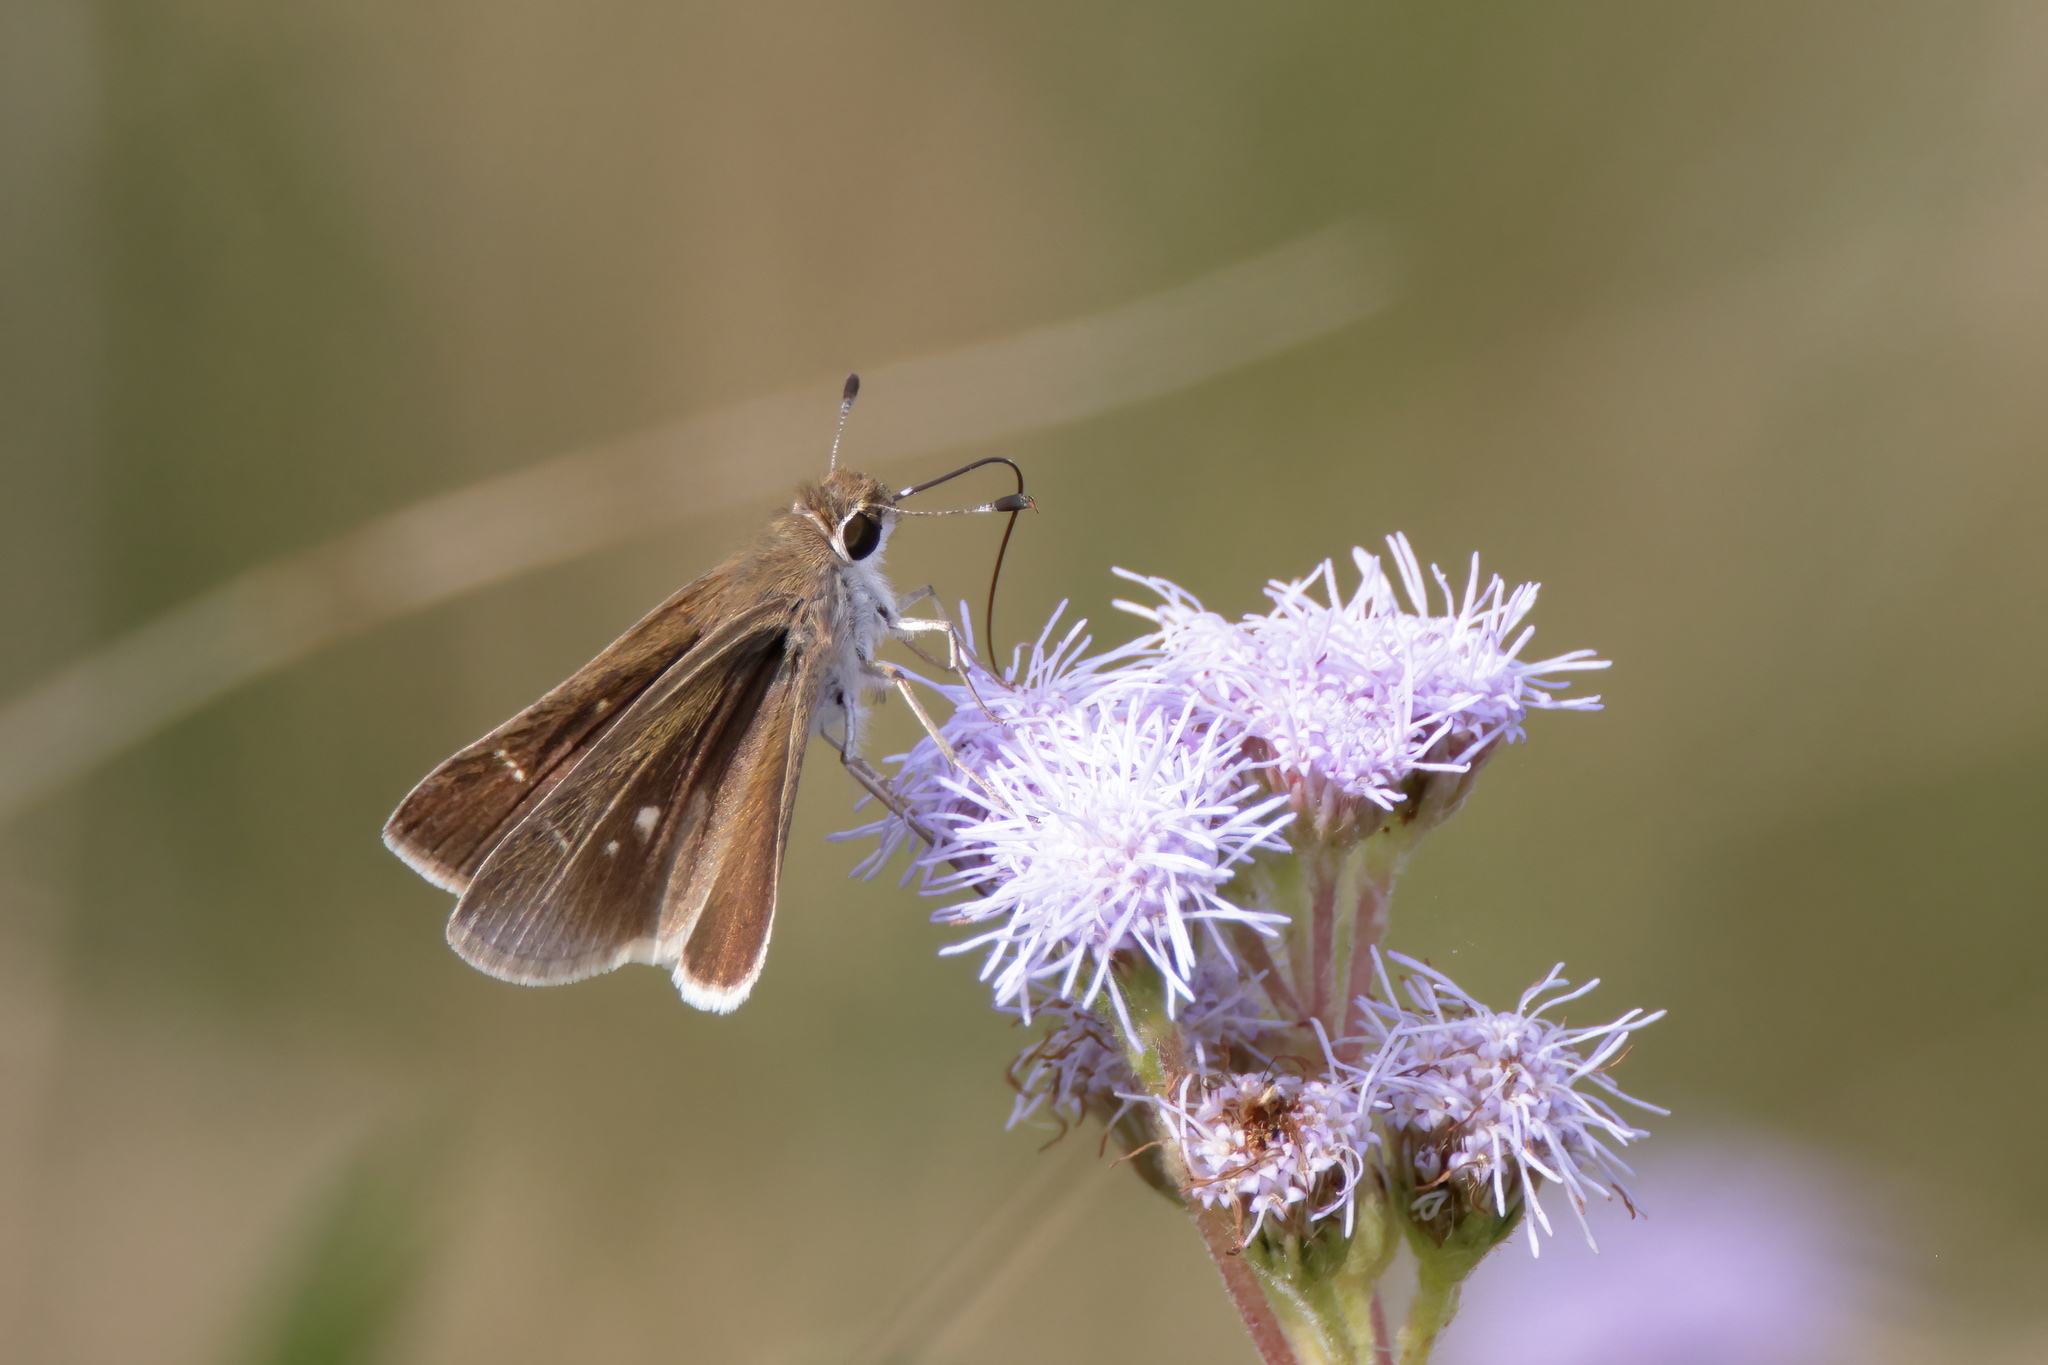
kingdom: Animalia
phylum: Arthropoda
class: Insecta
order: Lepidoptera
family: Hesperiidae
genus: Lerodea
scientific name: Lerodea eufala
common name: Eufala skipper
